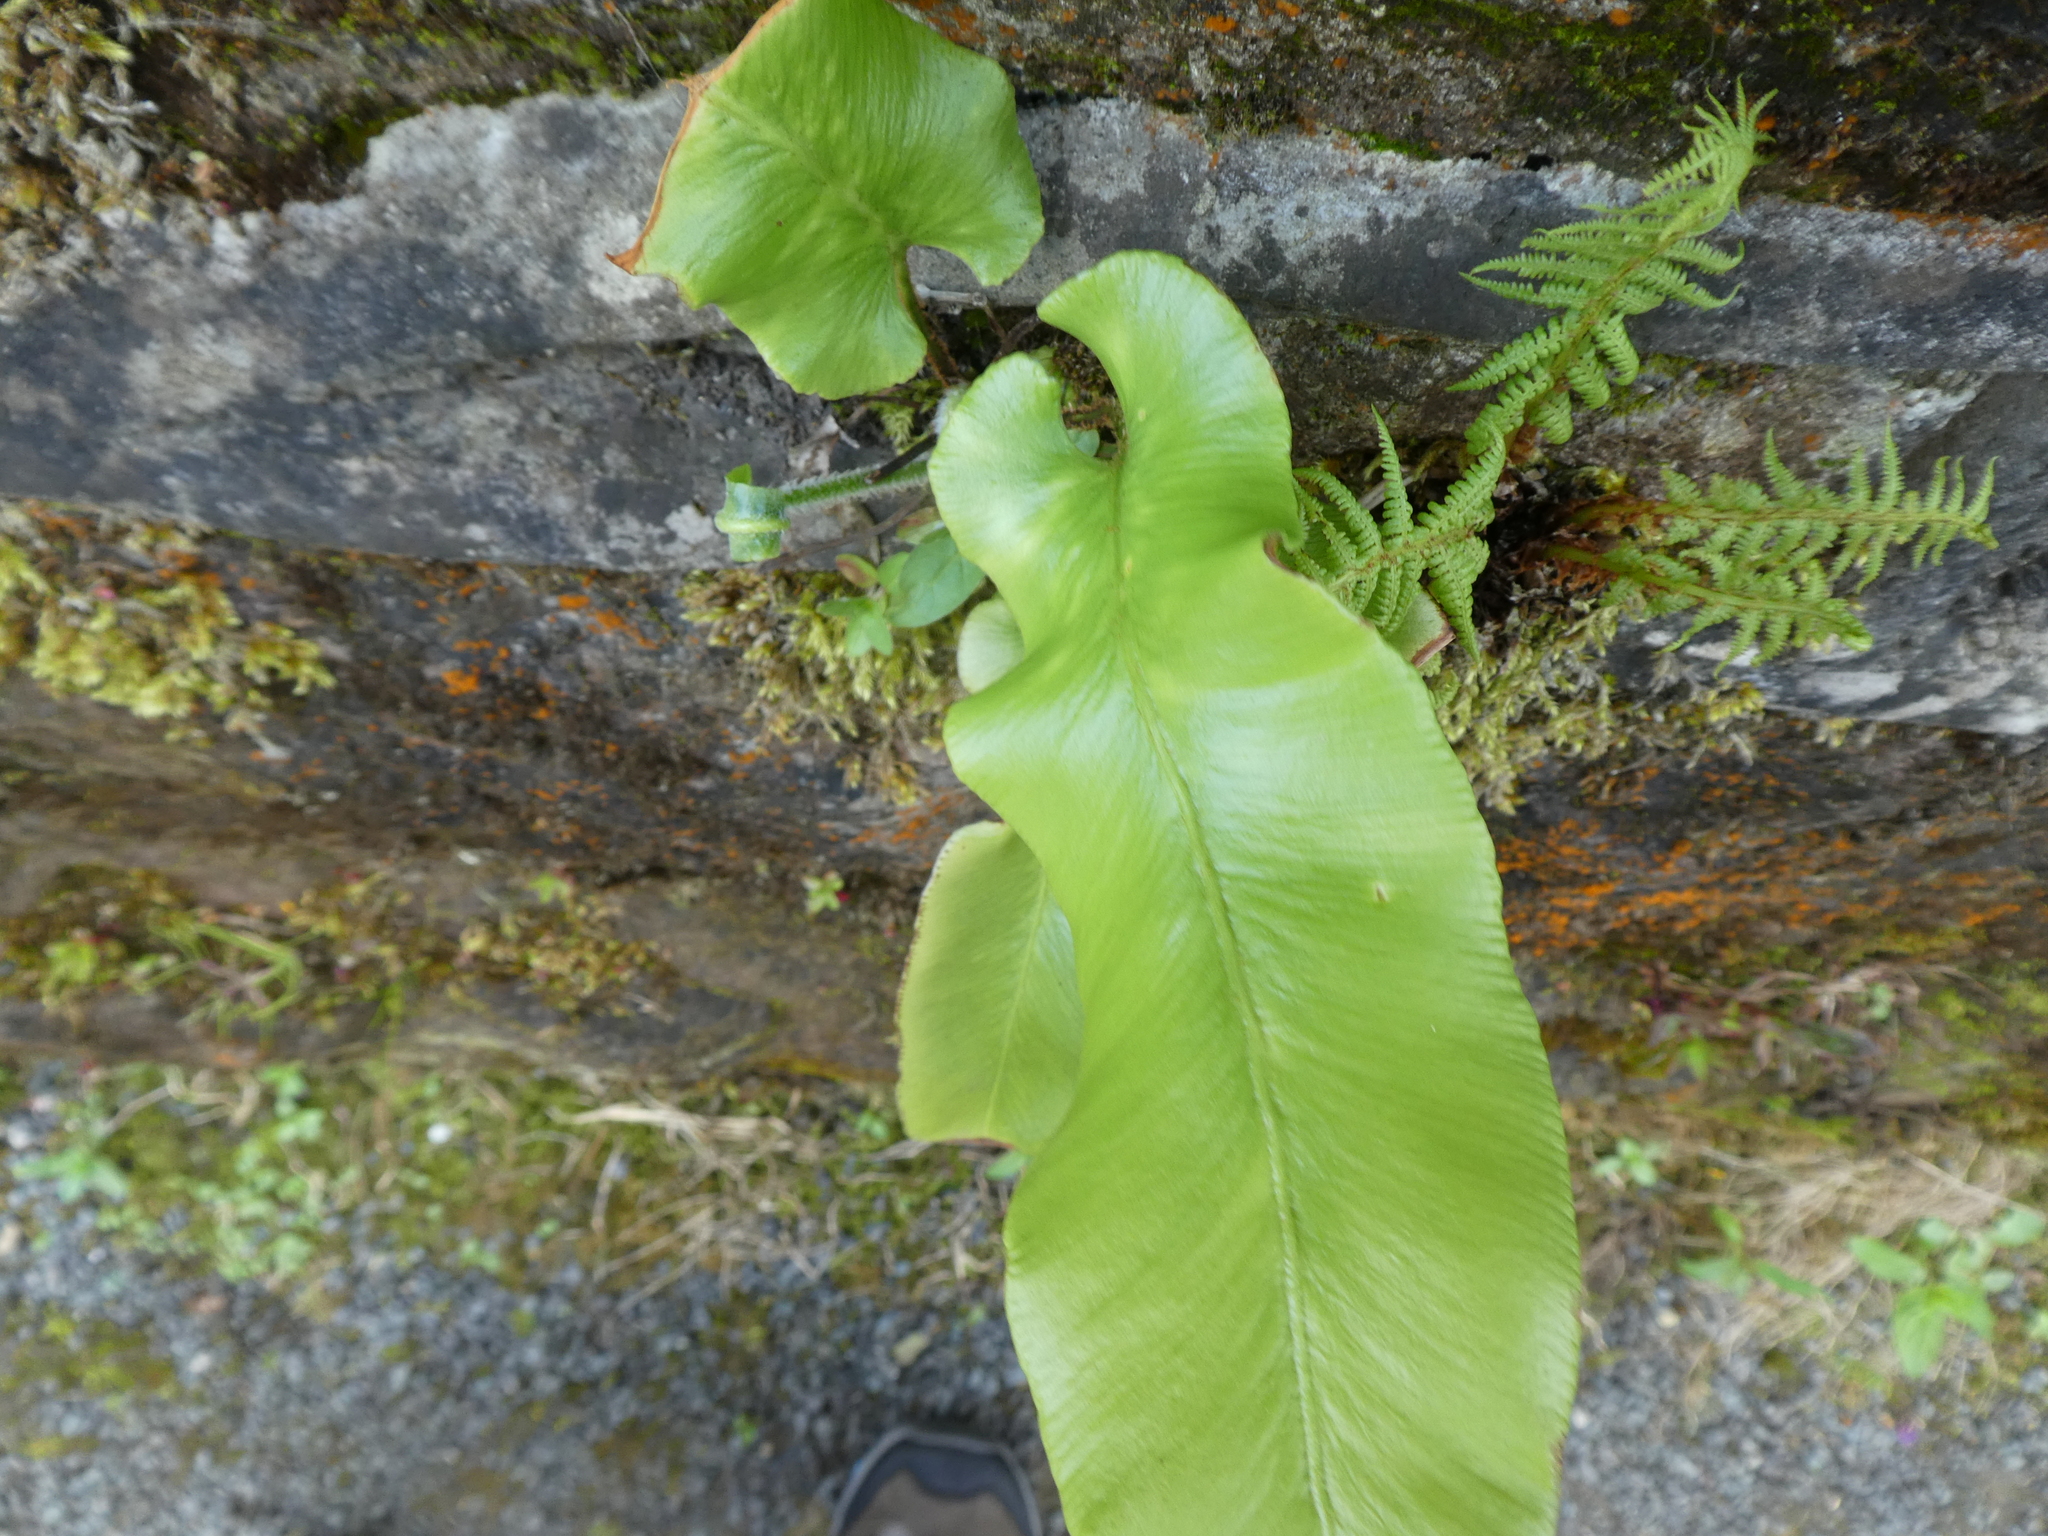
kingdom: Plantae
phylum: Tracheophyta
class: Polypodiopsida
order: Polypodiales
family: Aspleniaceae
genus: Asplenium
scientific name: Asplenium scolopendrium
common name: Hart's-tongue fern
